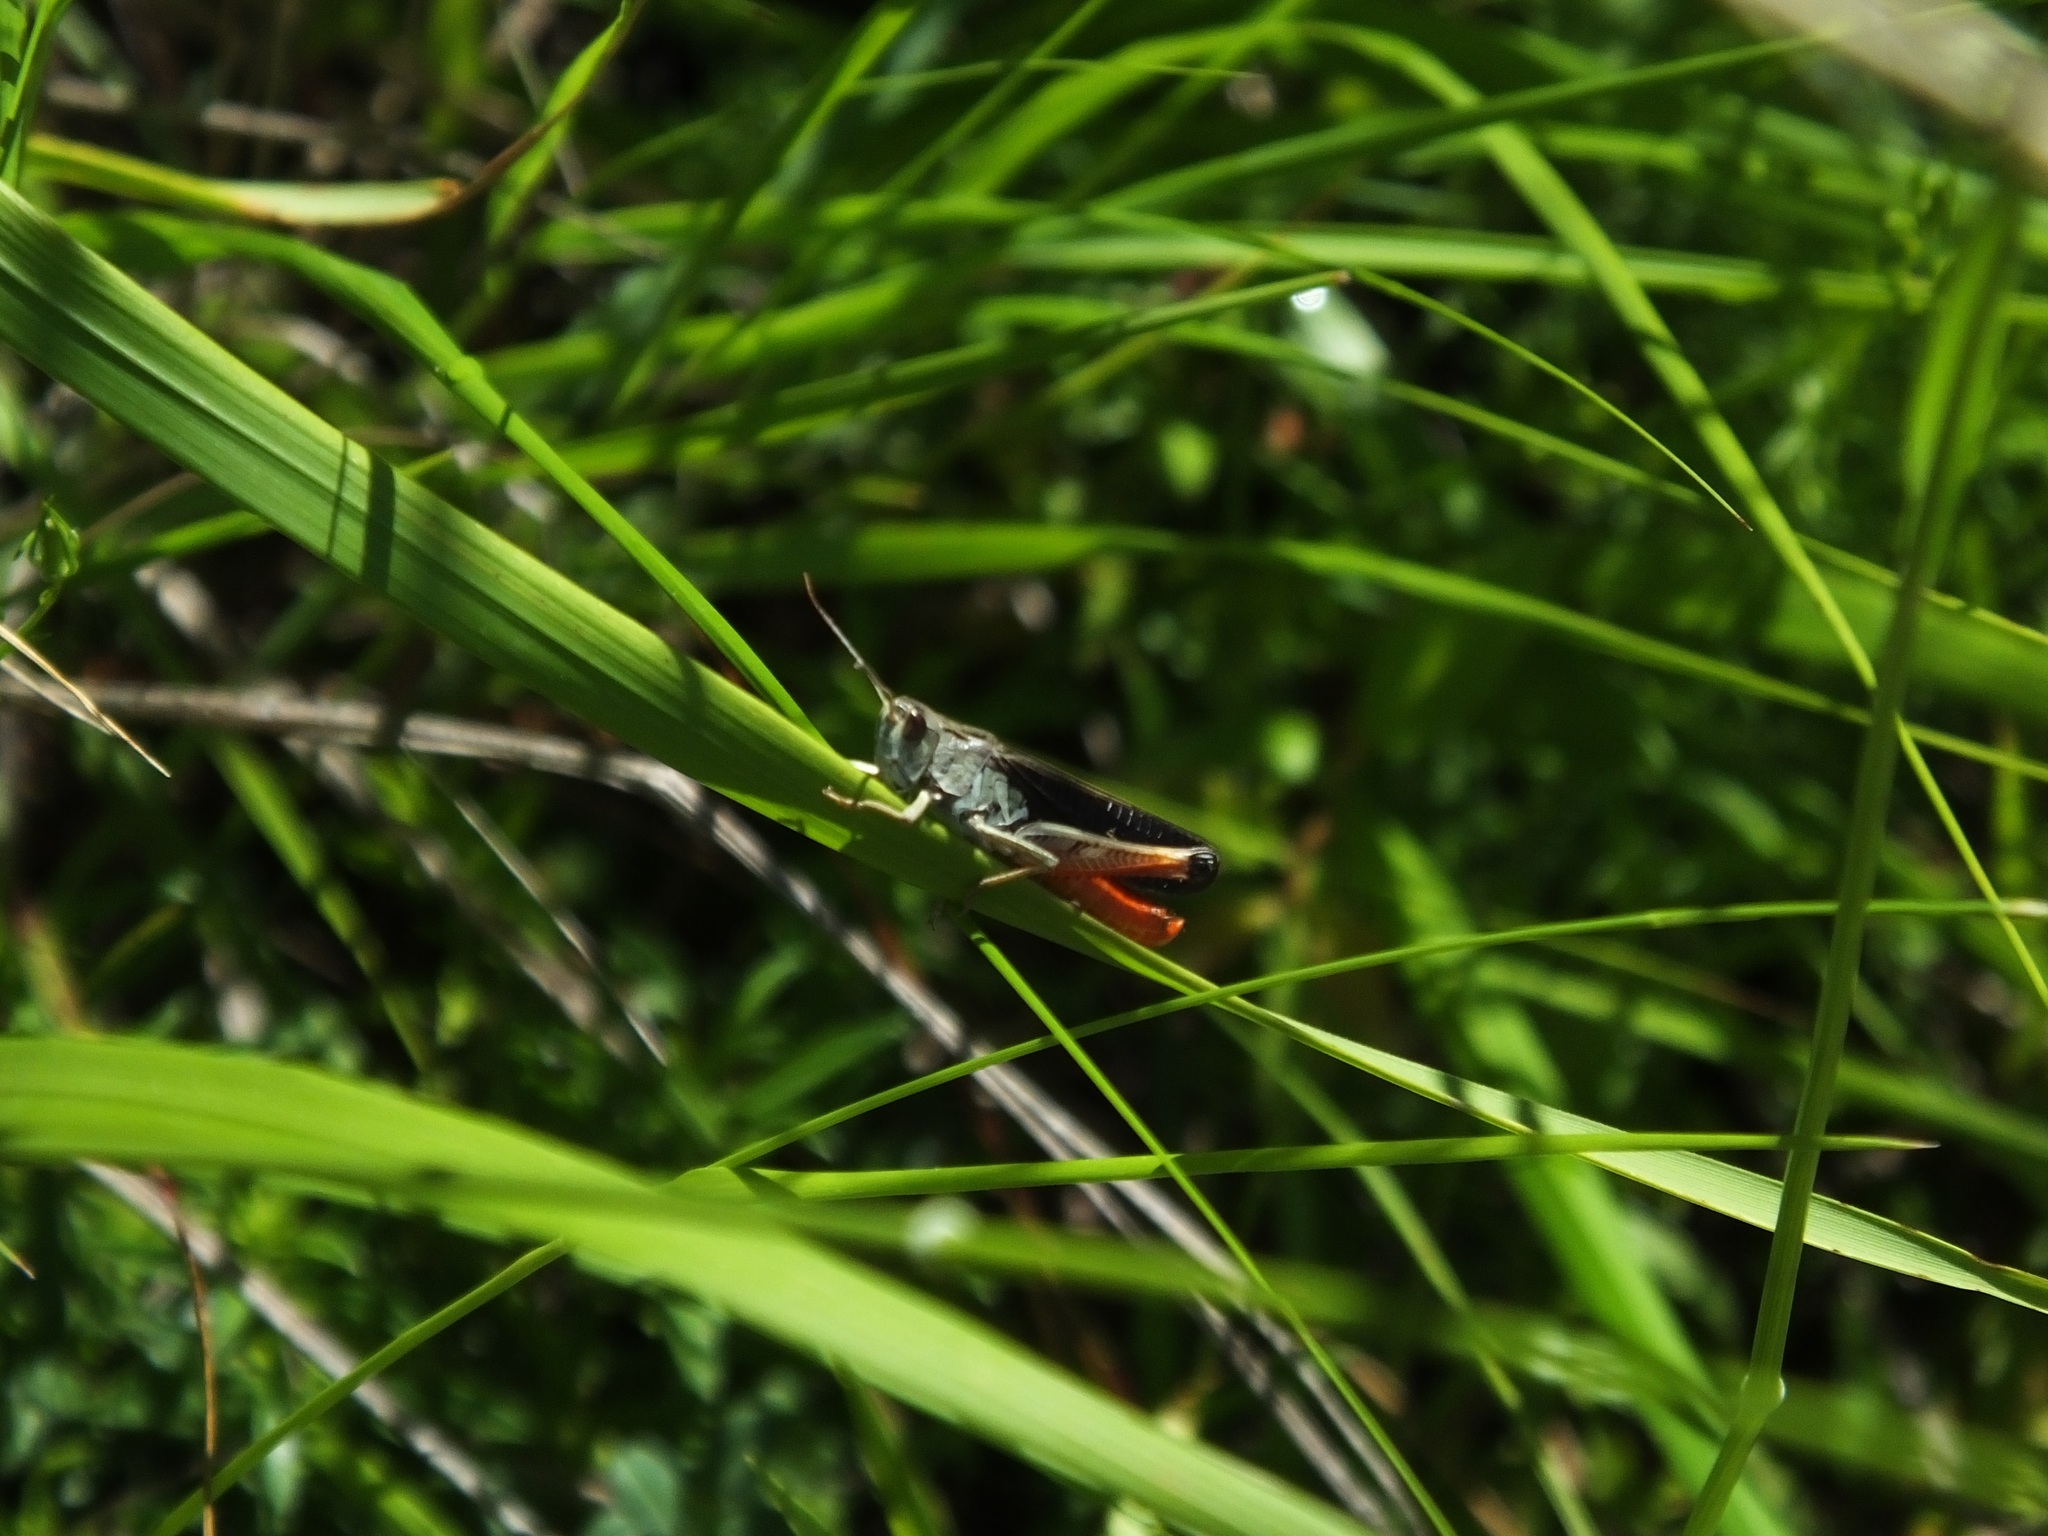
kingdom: Animalia
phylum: Arthropoda
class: Insecta
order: Orthoptera
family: Acrididae
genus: Stenobothrus
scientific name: Stenobothrus rubicundulus
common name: Wing-buzzing grasshopper
